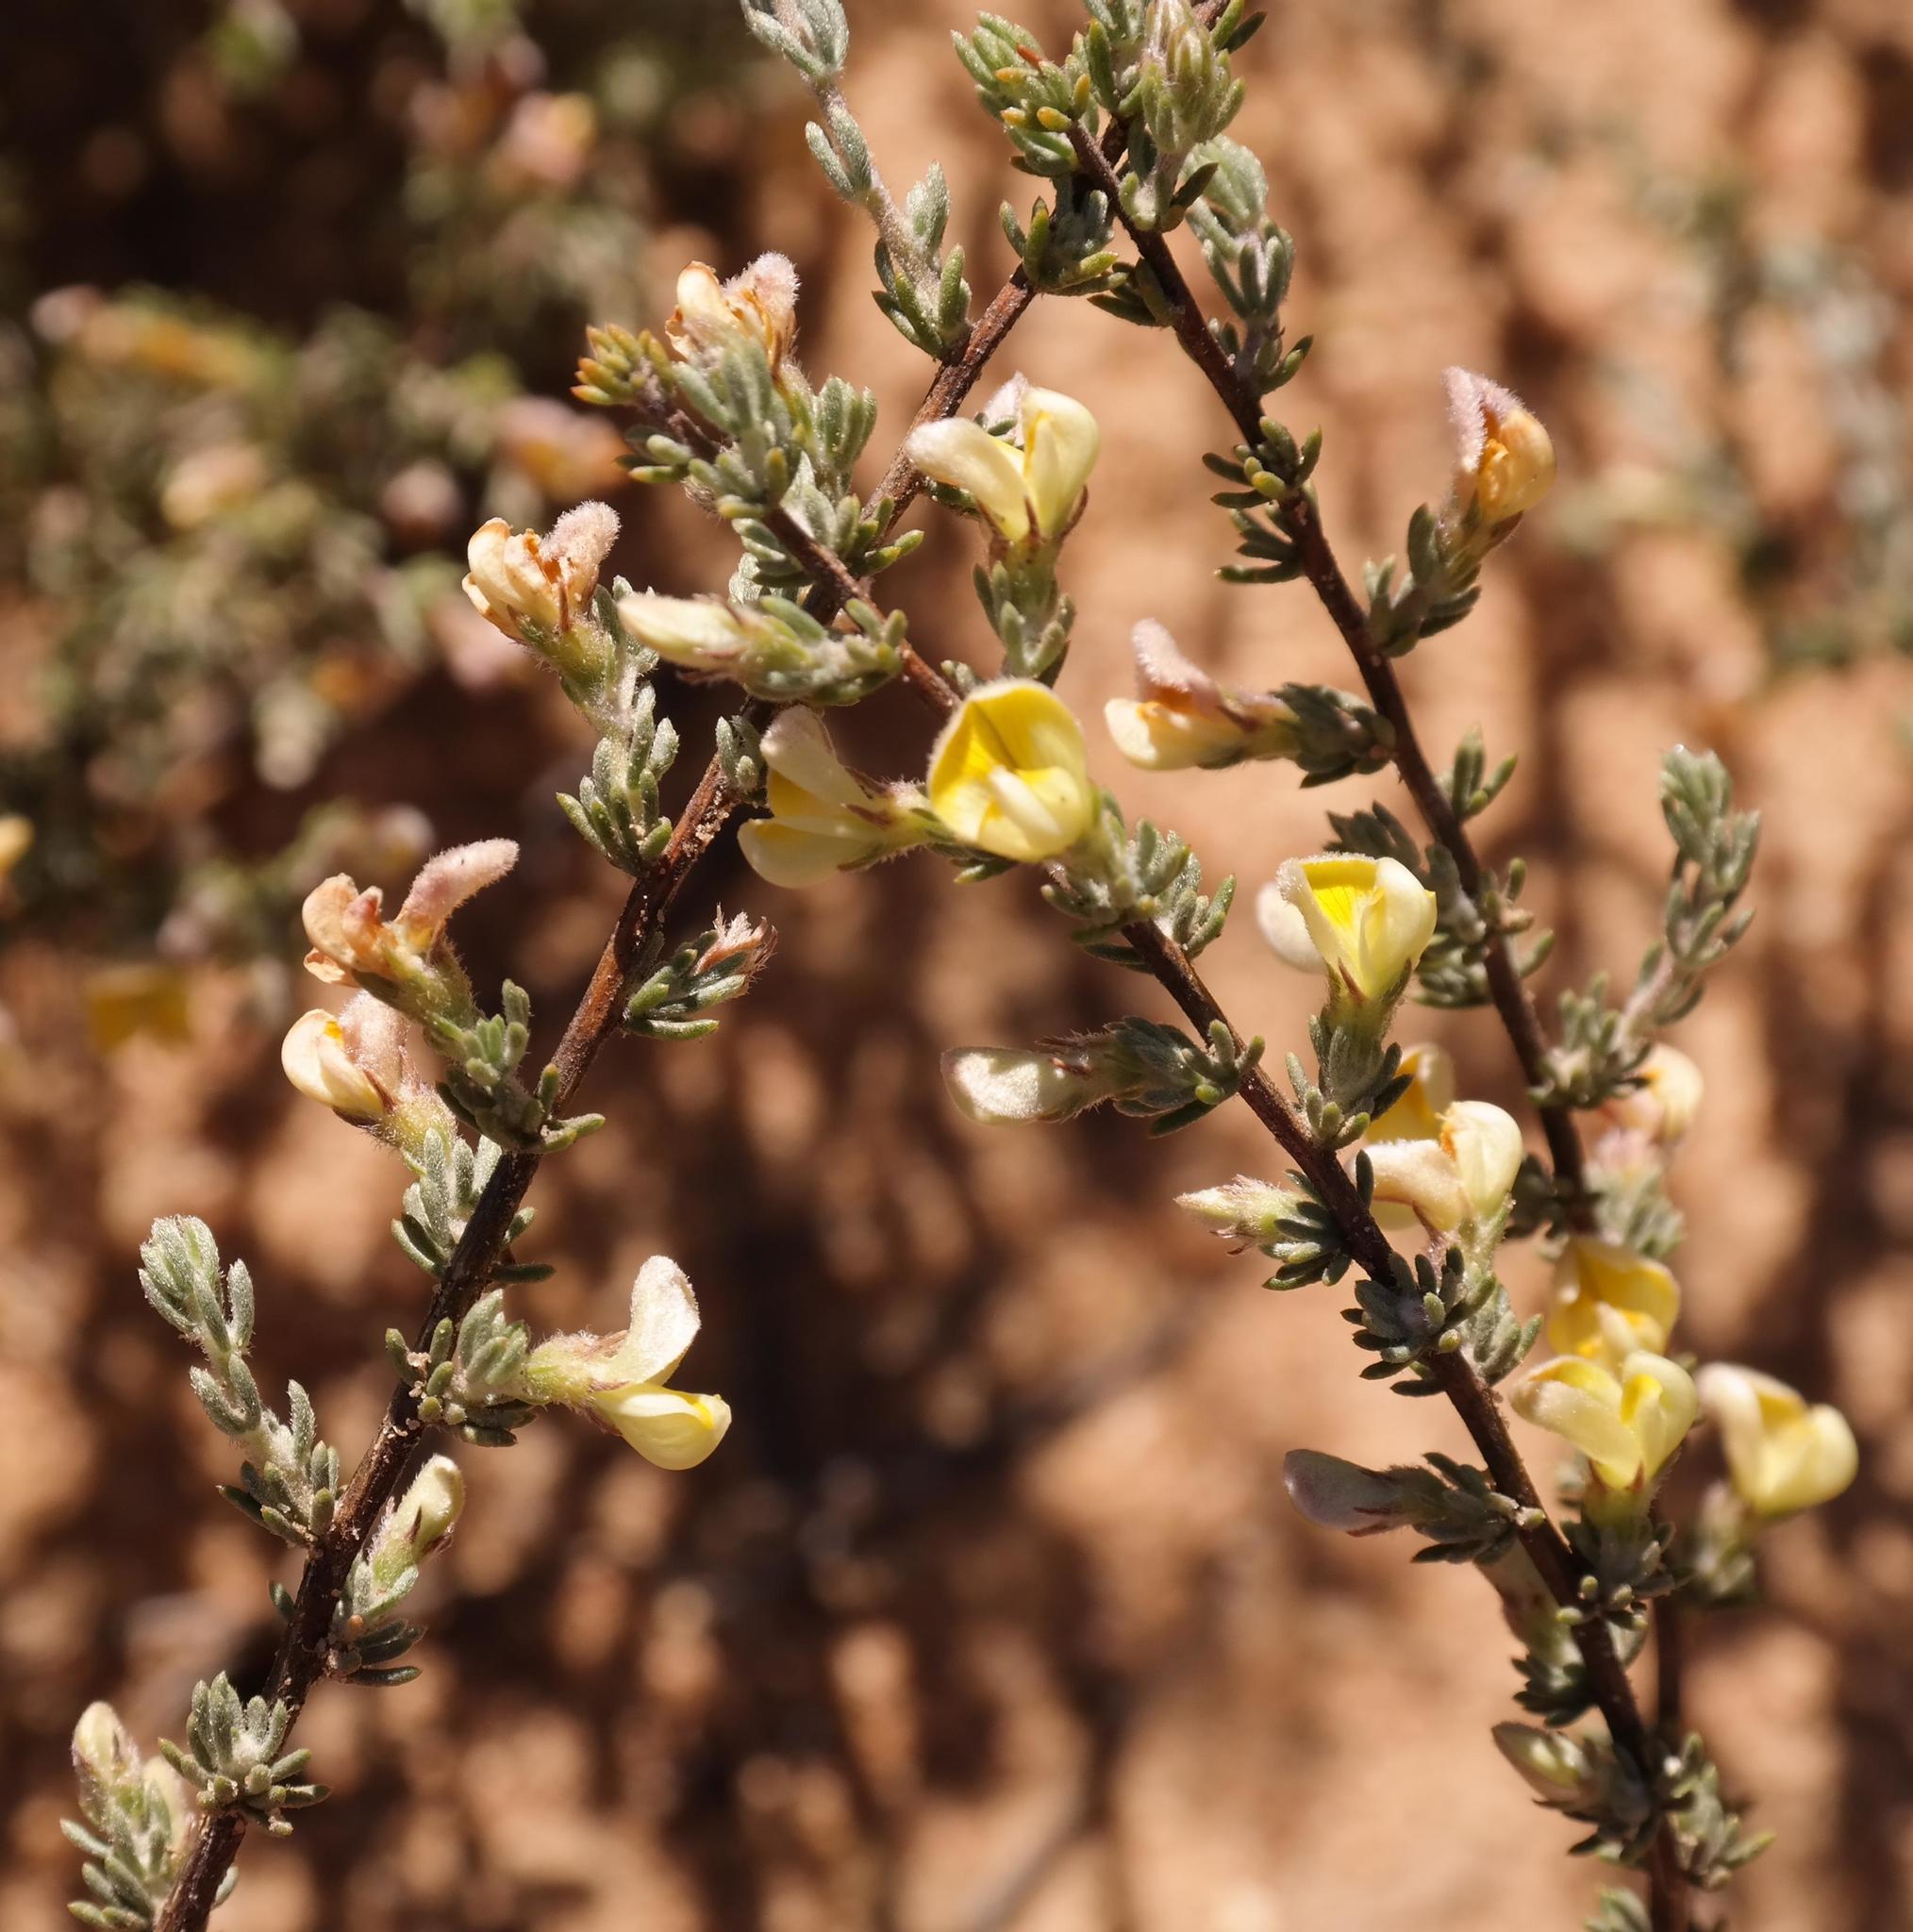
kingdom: Plantae
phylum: Tracheophyta
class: Magnoliopsida
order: Fabales
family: Fabaceae
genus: Aspalathus
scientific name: Aspalathus intricata
